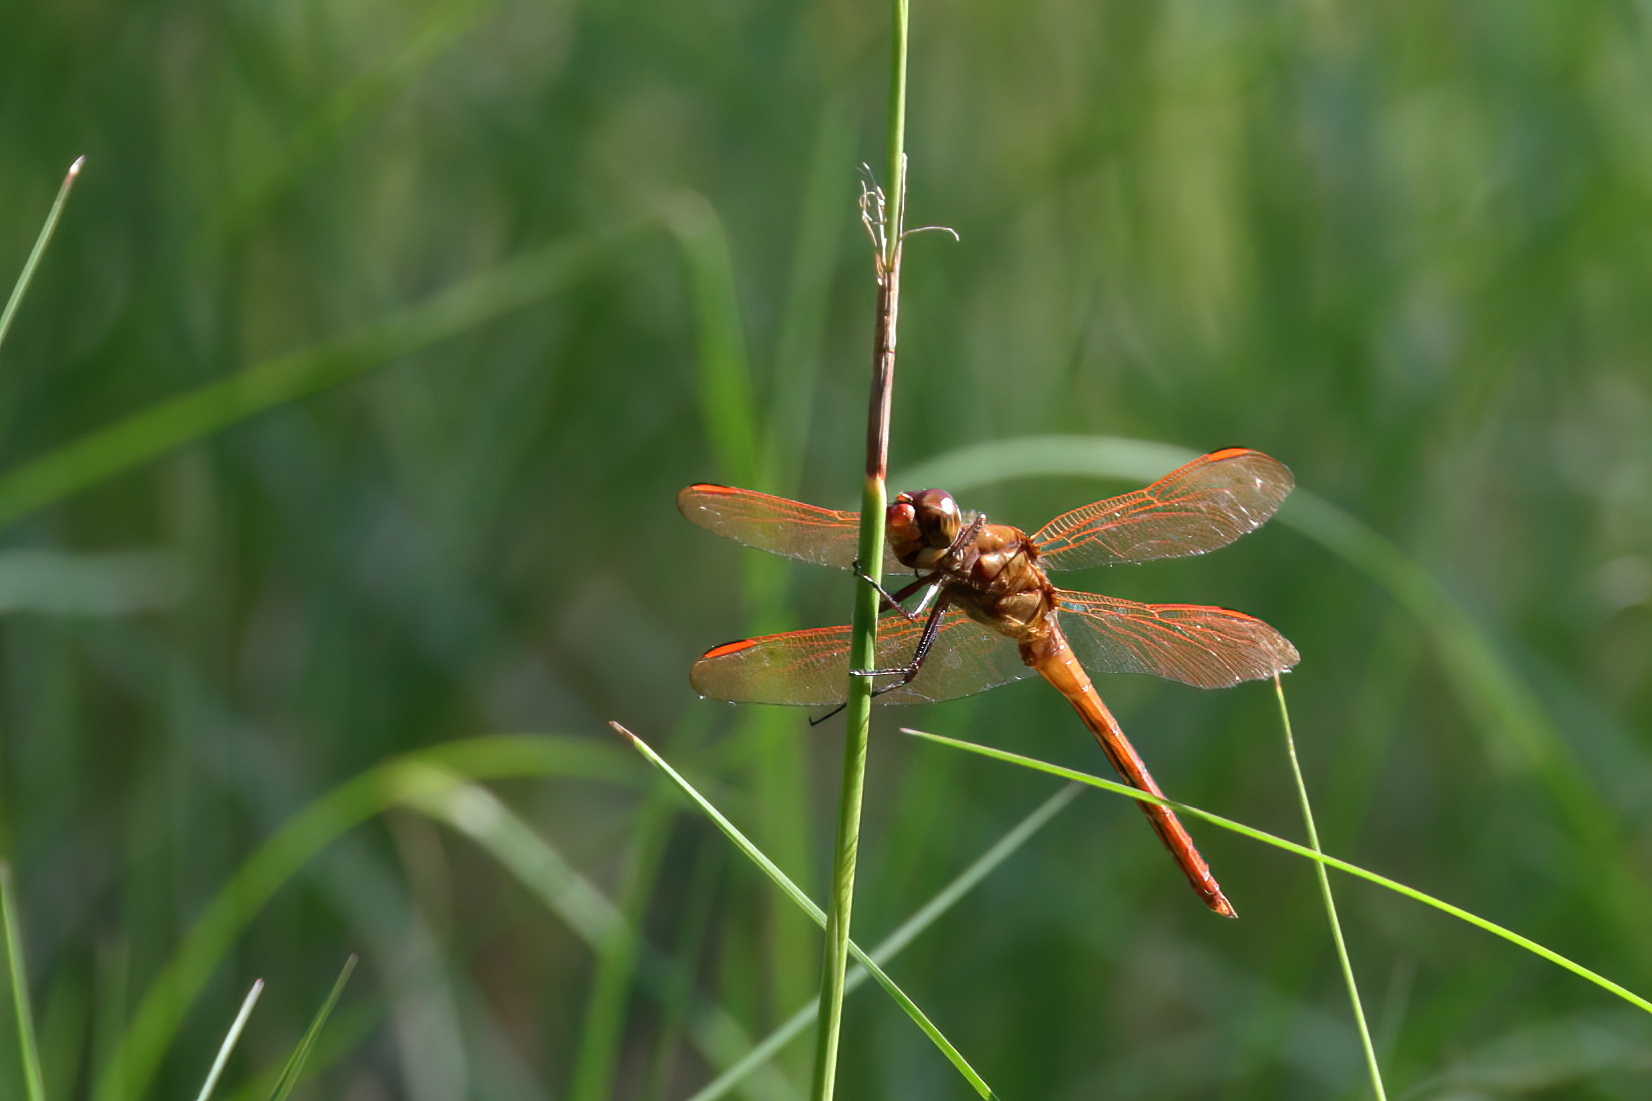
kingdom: Animalia
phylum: Arthropoda
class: Insecta
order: Odonata
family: Libellulidae
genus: Libellula
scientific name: Libellula auripennis
